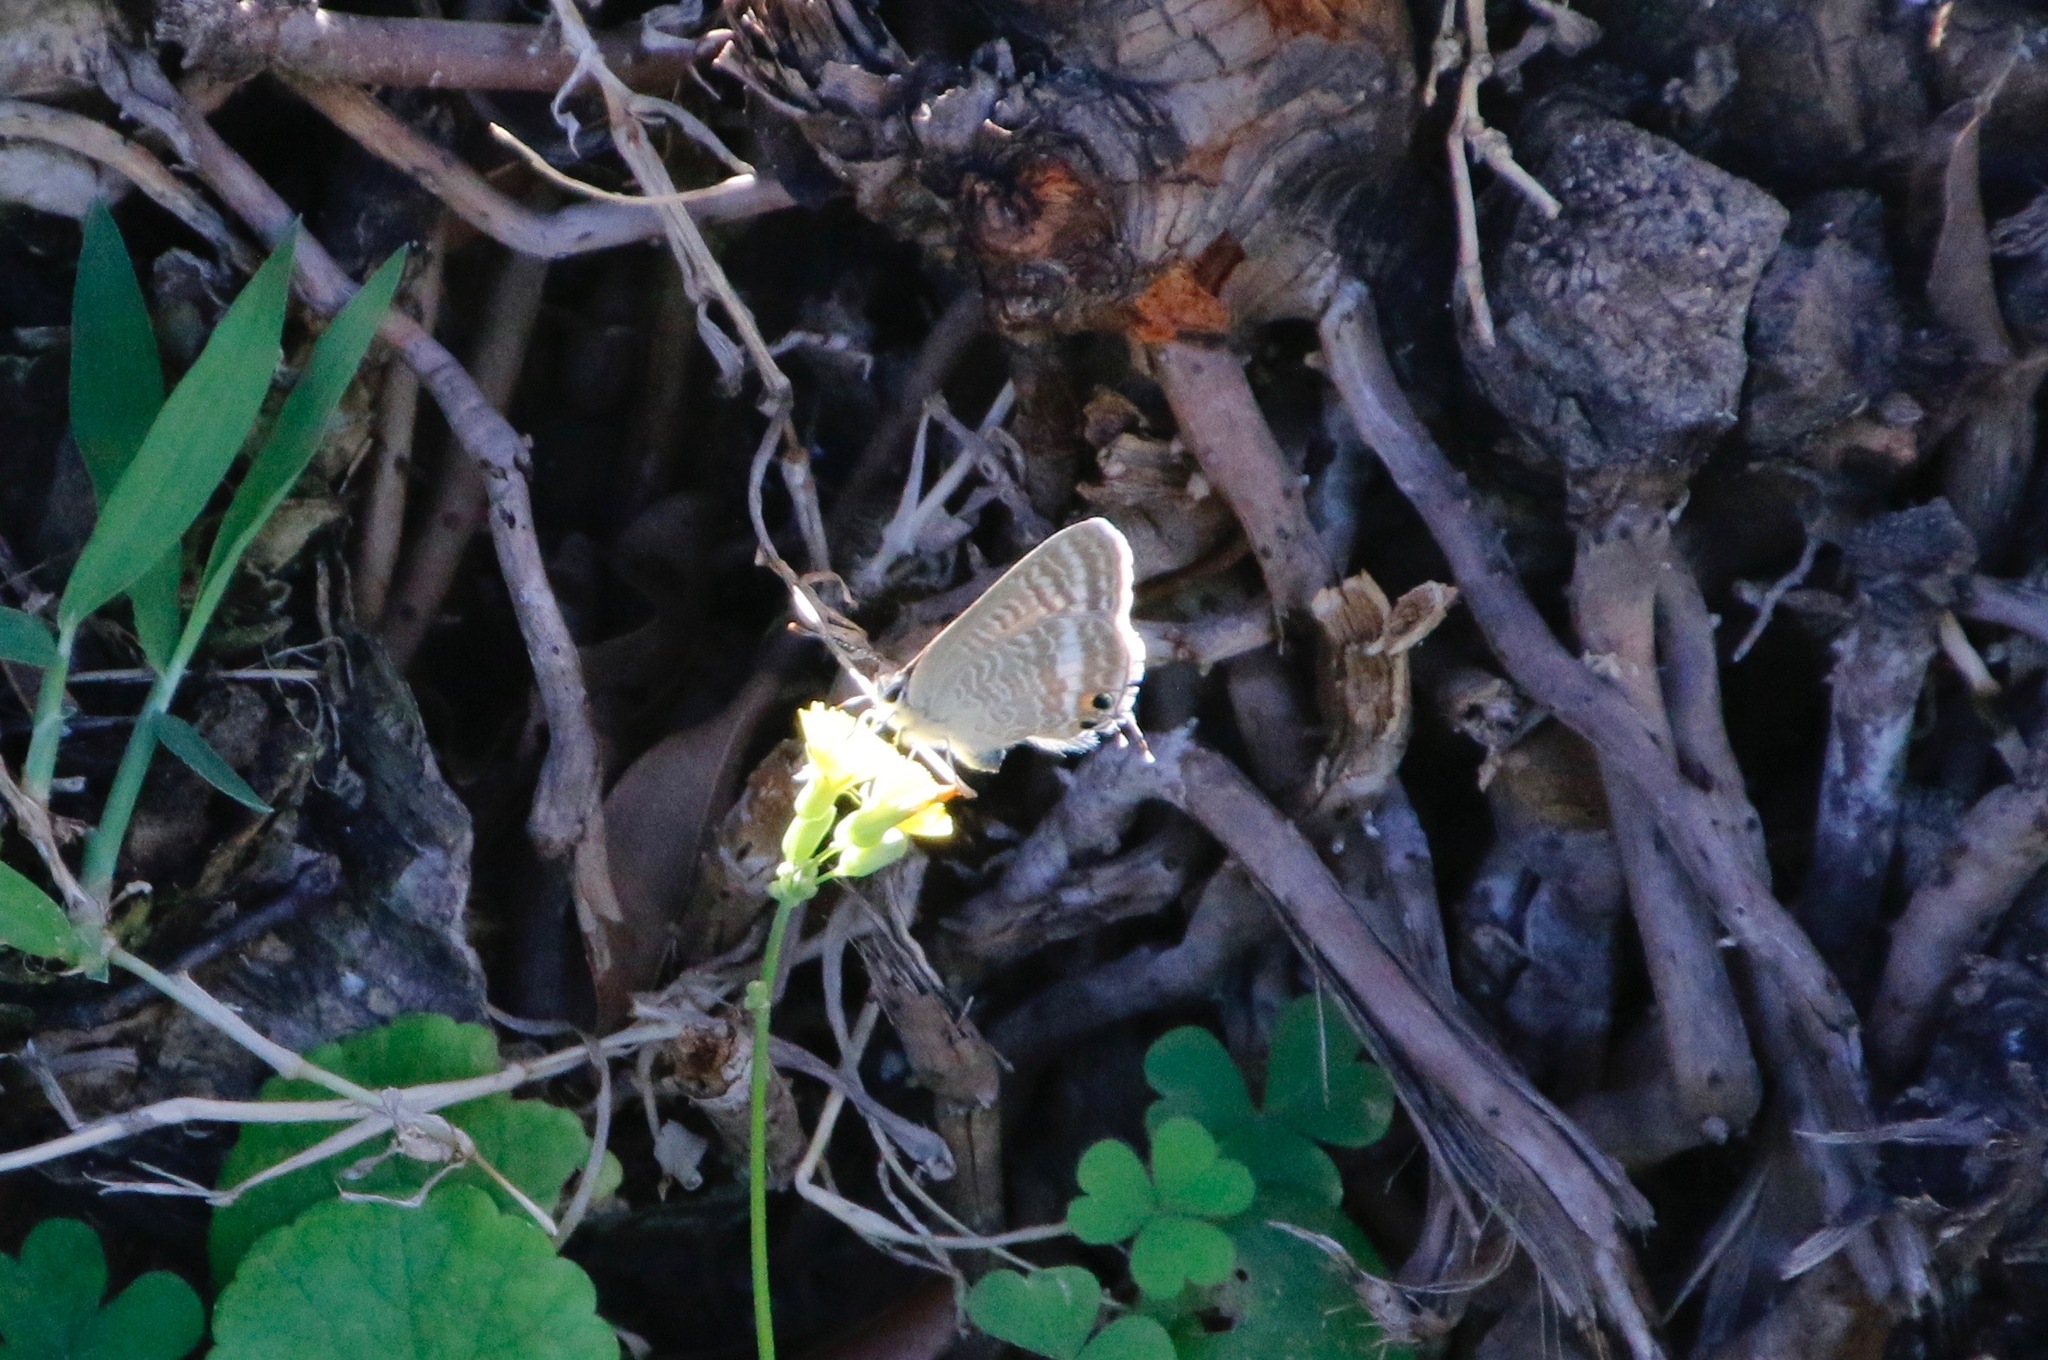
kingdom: Animalia
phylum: Arthropoda
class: Insecta
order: Lepidoptera
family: Lycaenidae
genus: Lampides
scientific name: Lampides boeticus
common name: Long-tailed blue
